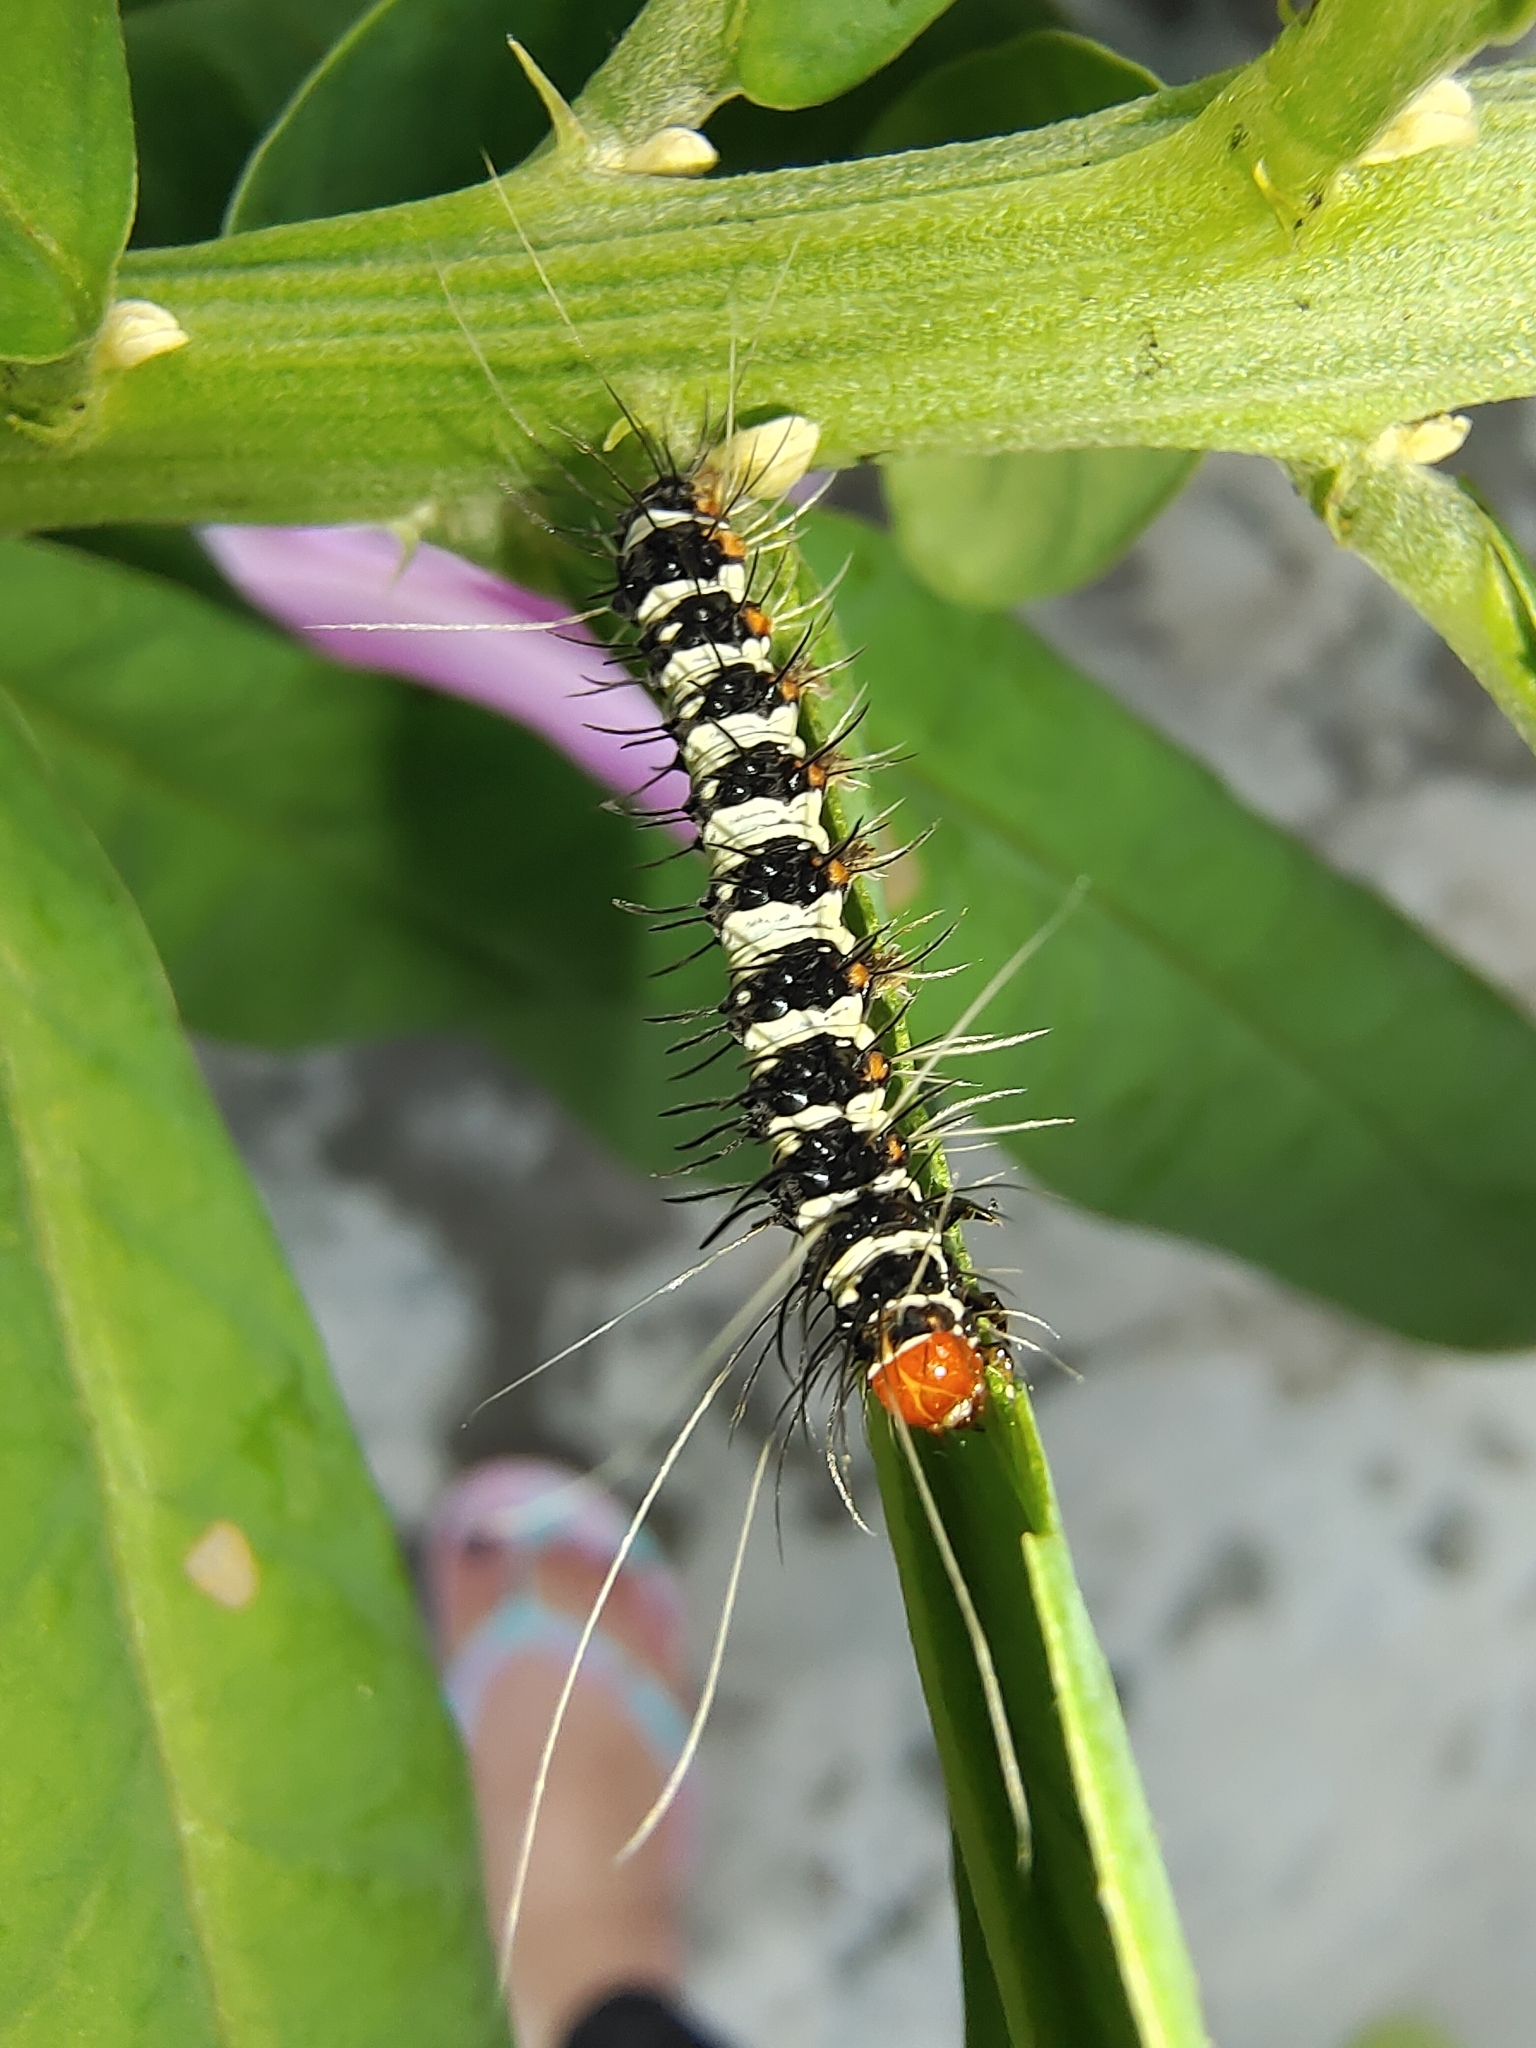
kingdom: Animalia
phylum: Arthropoda
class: Insecta
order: Lepidoptera
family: Erebidae
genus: Argina
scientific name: Argina astrea
